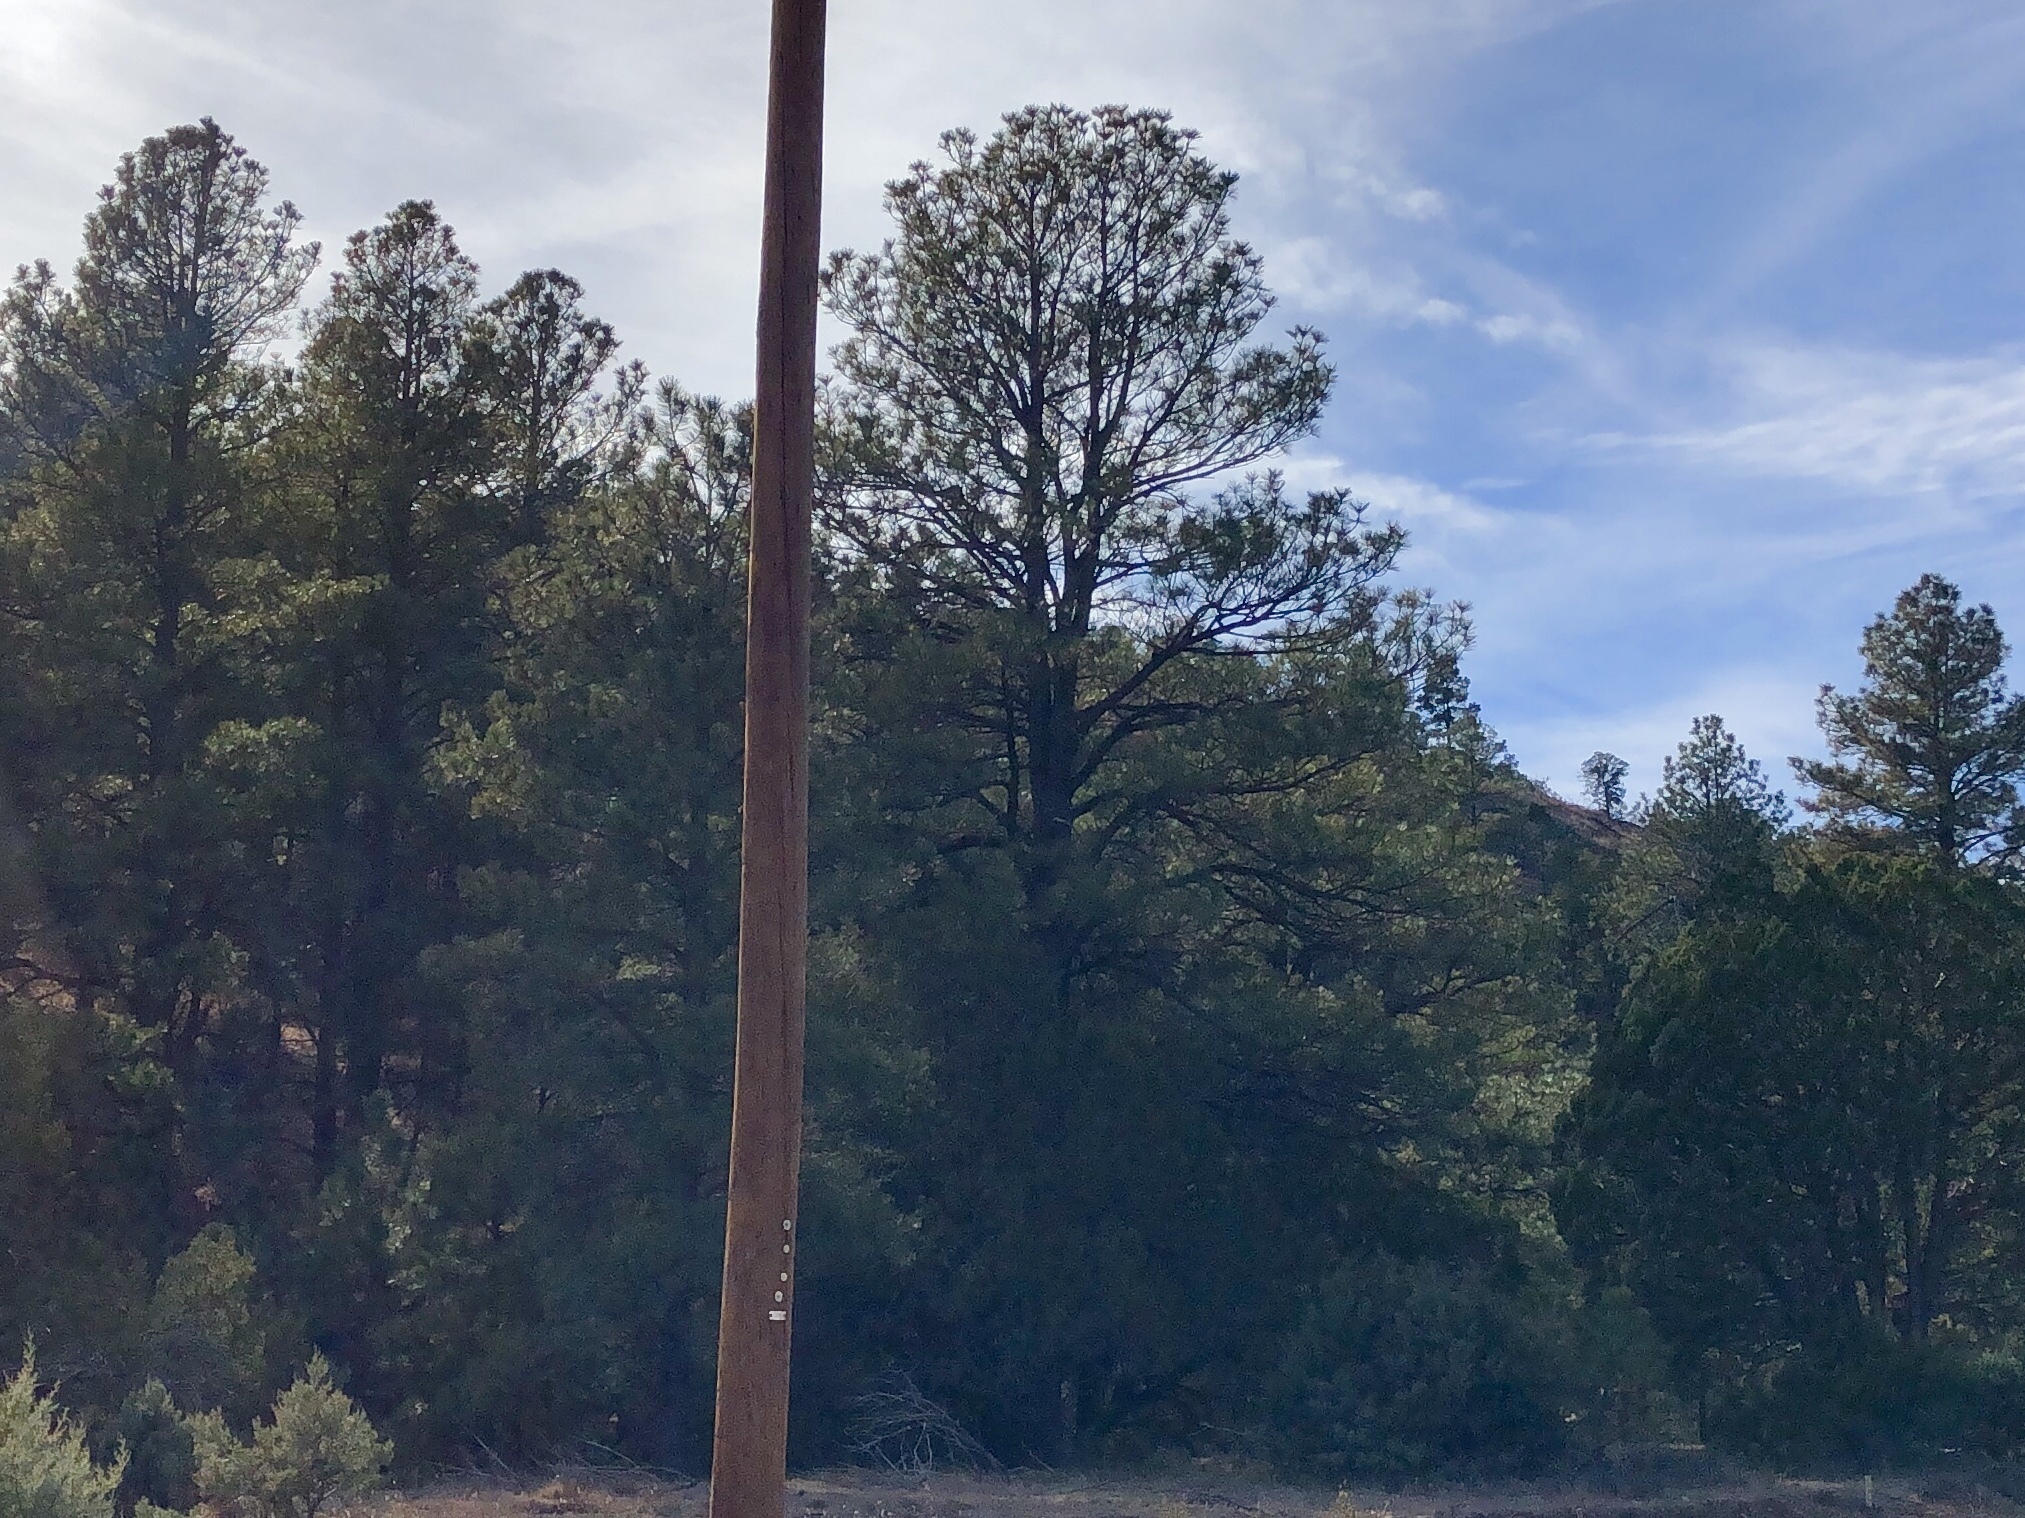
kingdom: Plantae
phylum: Tracheophyta
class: Pinopsida
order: Pinales
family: Pinaceae
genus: Pinus
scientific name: Pinus ponderosa
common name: Western yellow-pine
